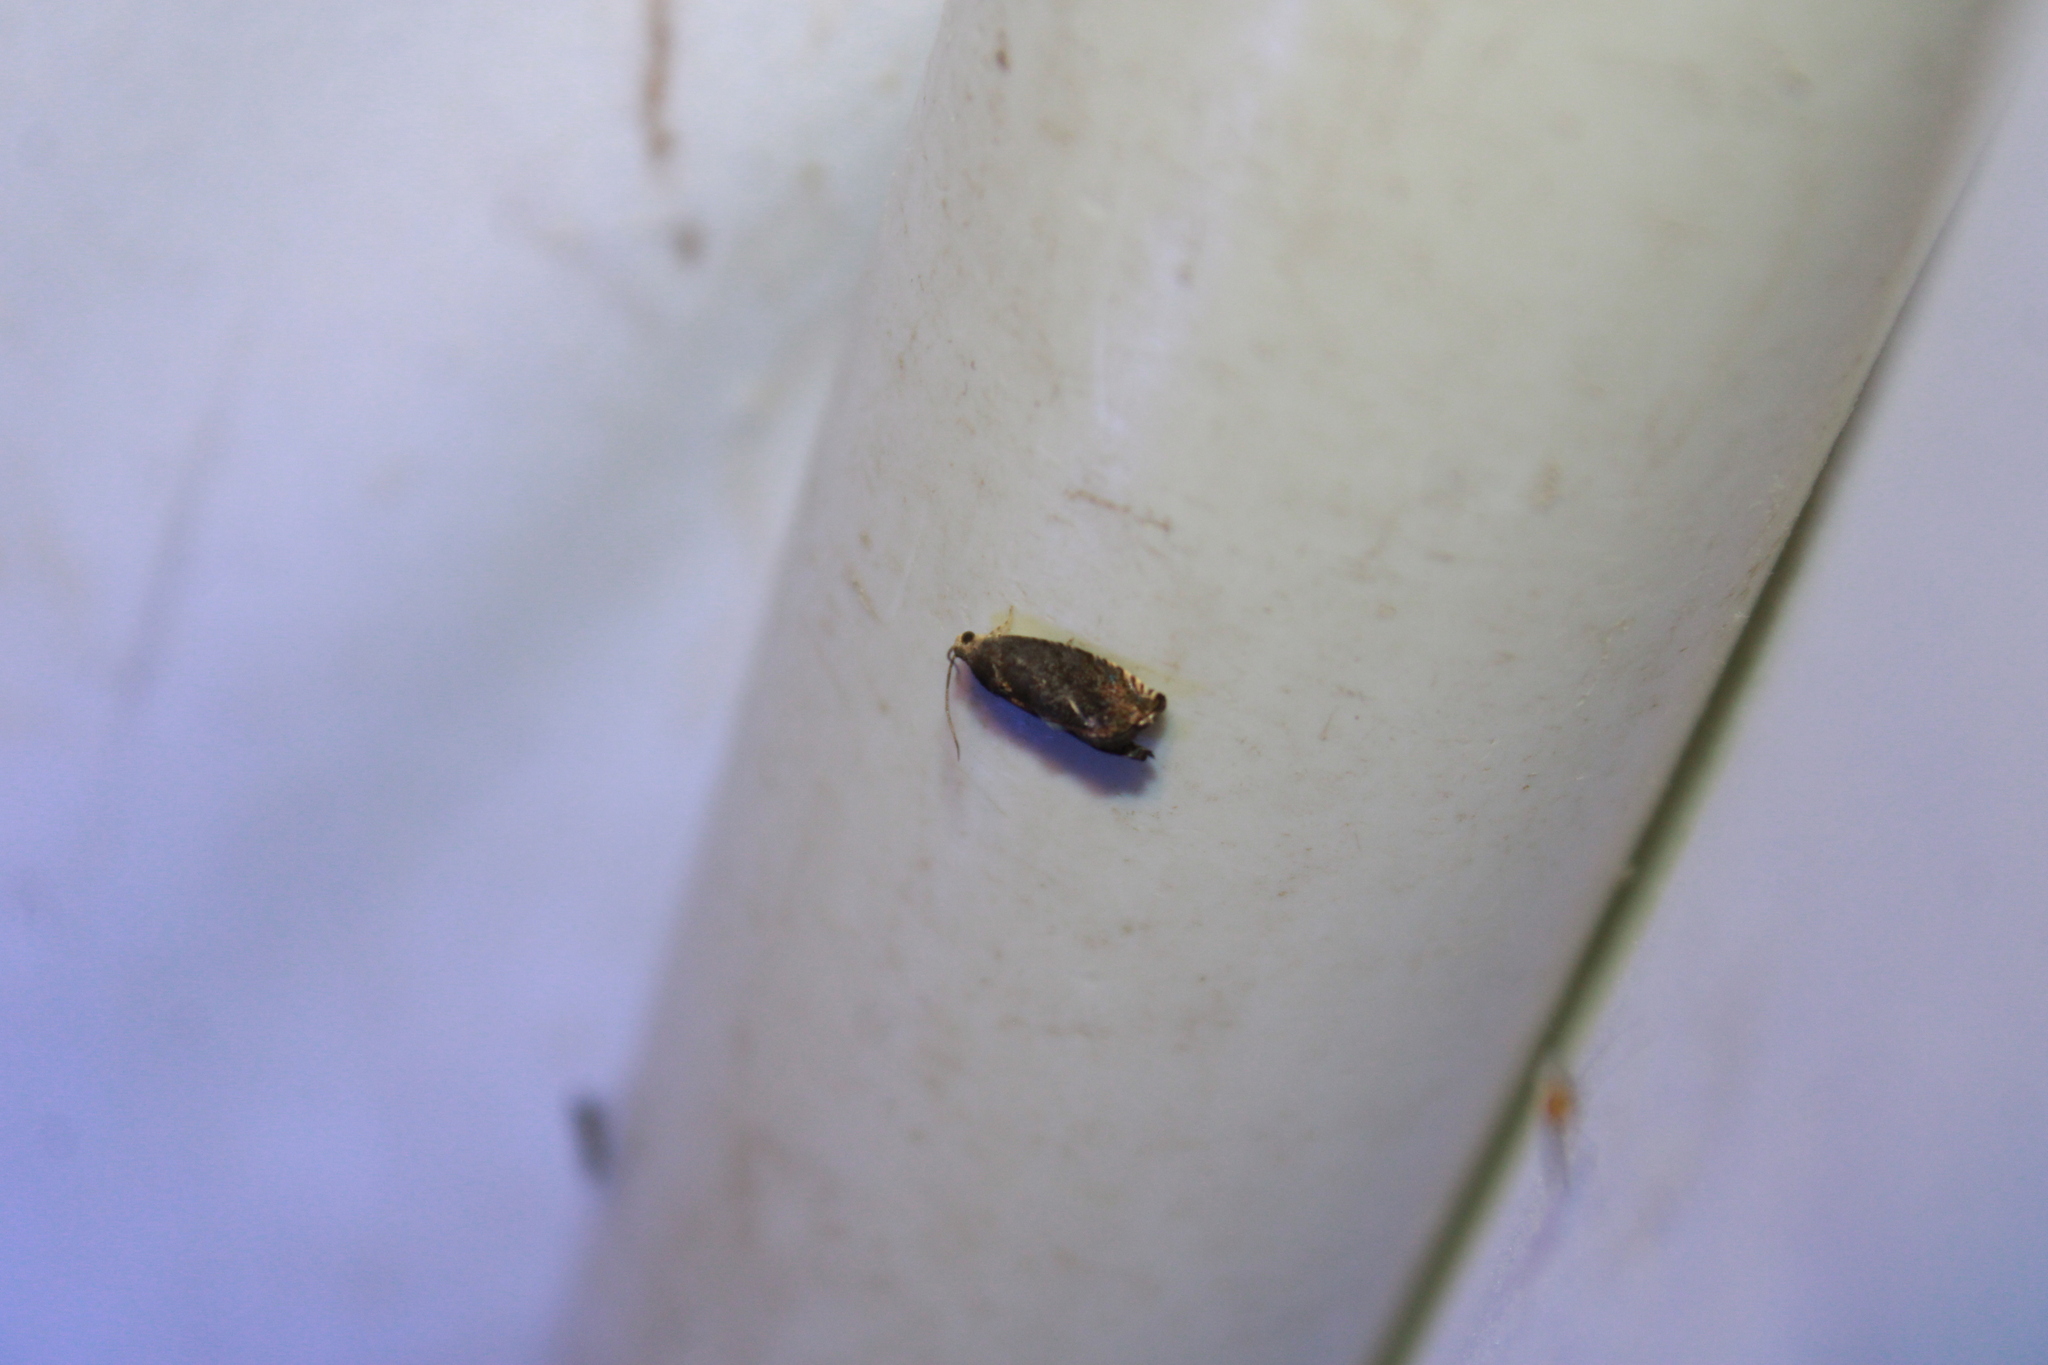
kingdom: Animalia
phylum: Arthropoda
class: Insecta
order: Lepidoptera
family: Tortricidae
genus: Cydia
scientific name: Cydia caryana
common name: Hickory shuckworm moth
